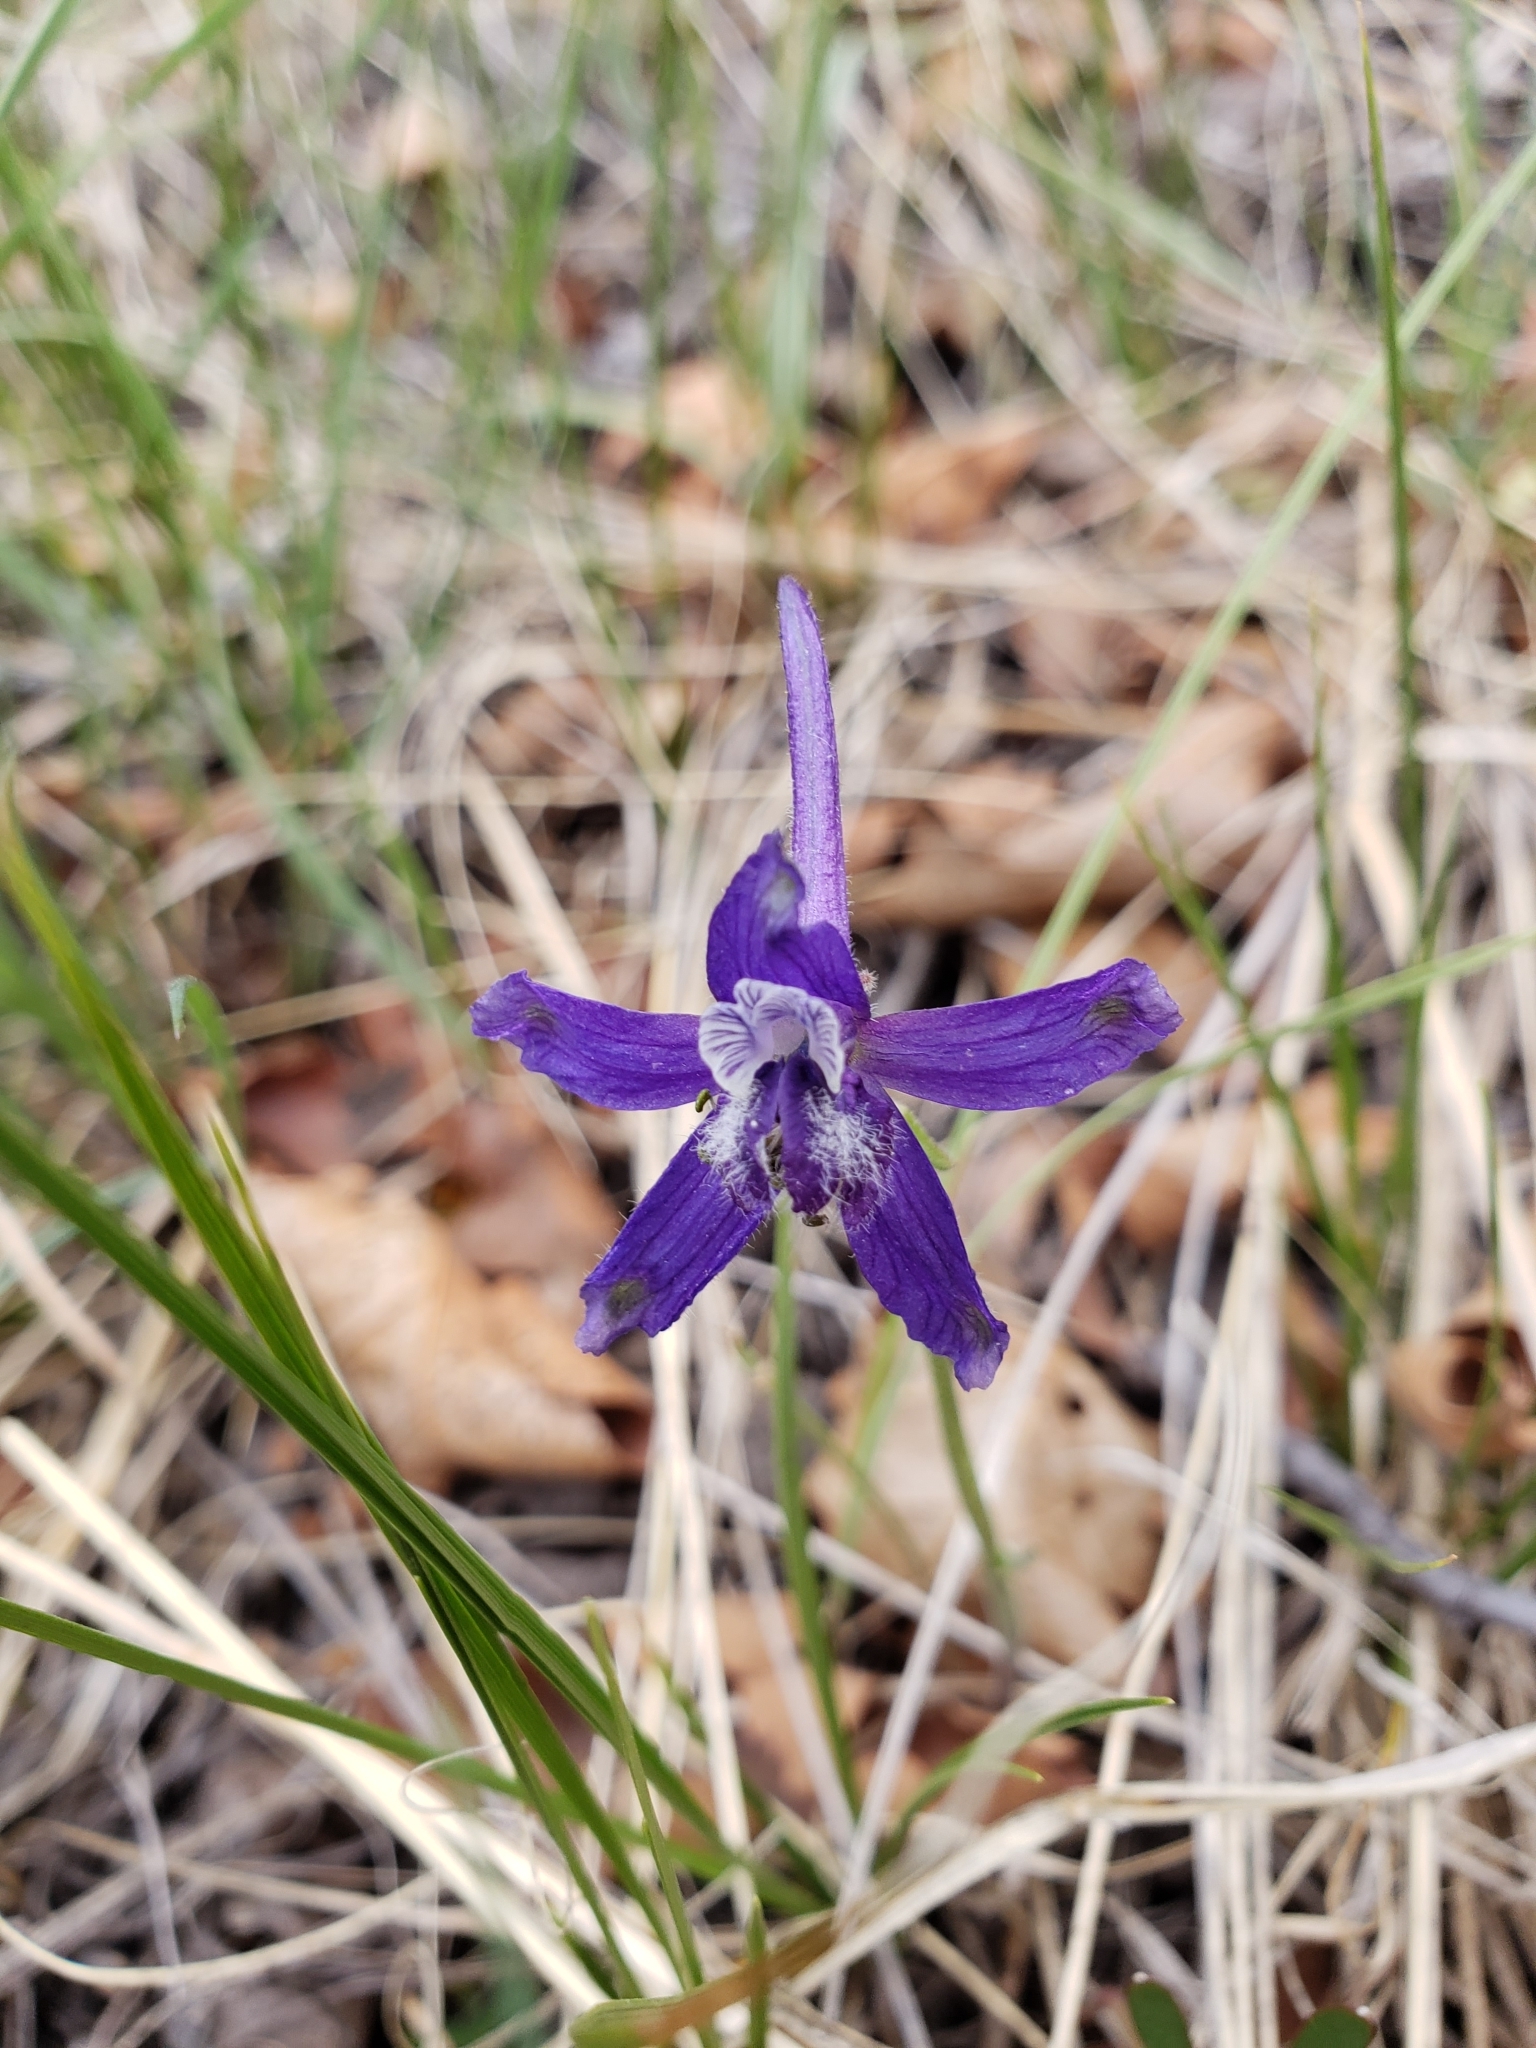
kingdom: Plantae
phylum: Tracheophyta
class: Magnoliopsida
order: Ranunculales
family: Ranunculaceae
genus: Delphinium
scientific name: Delphinium nuttallianum
